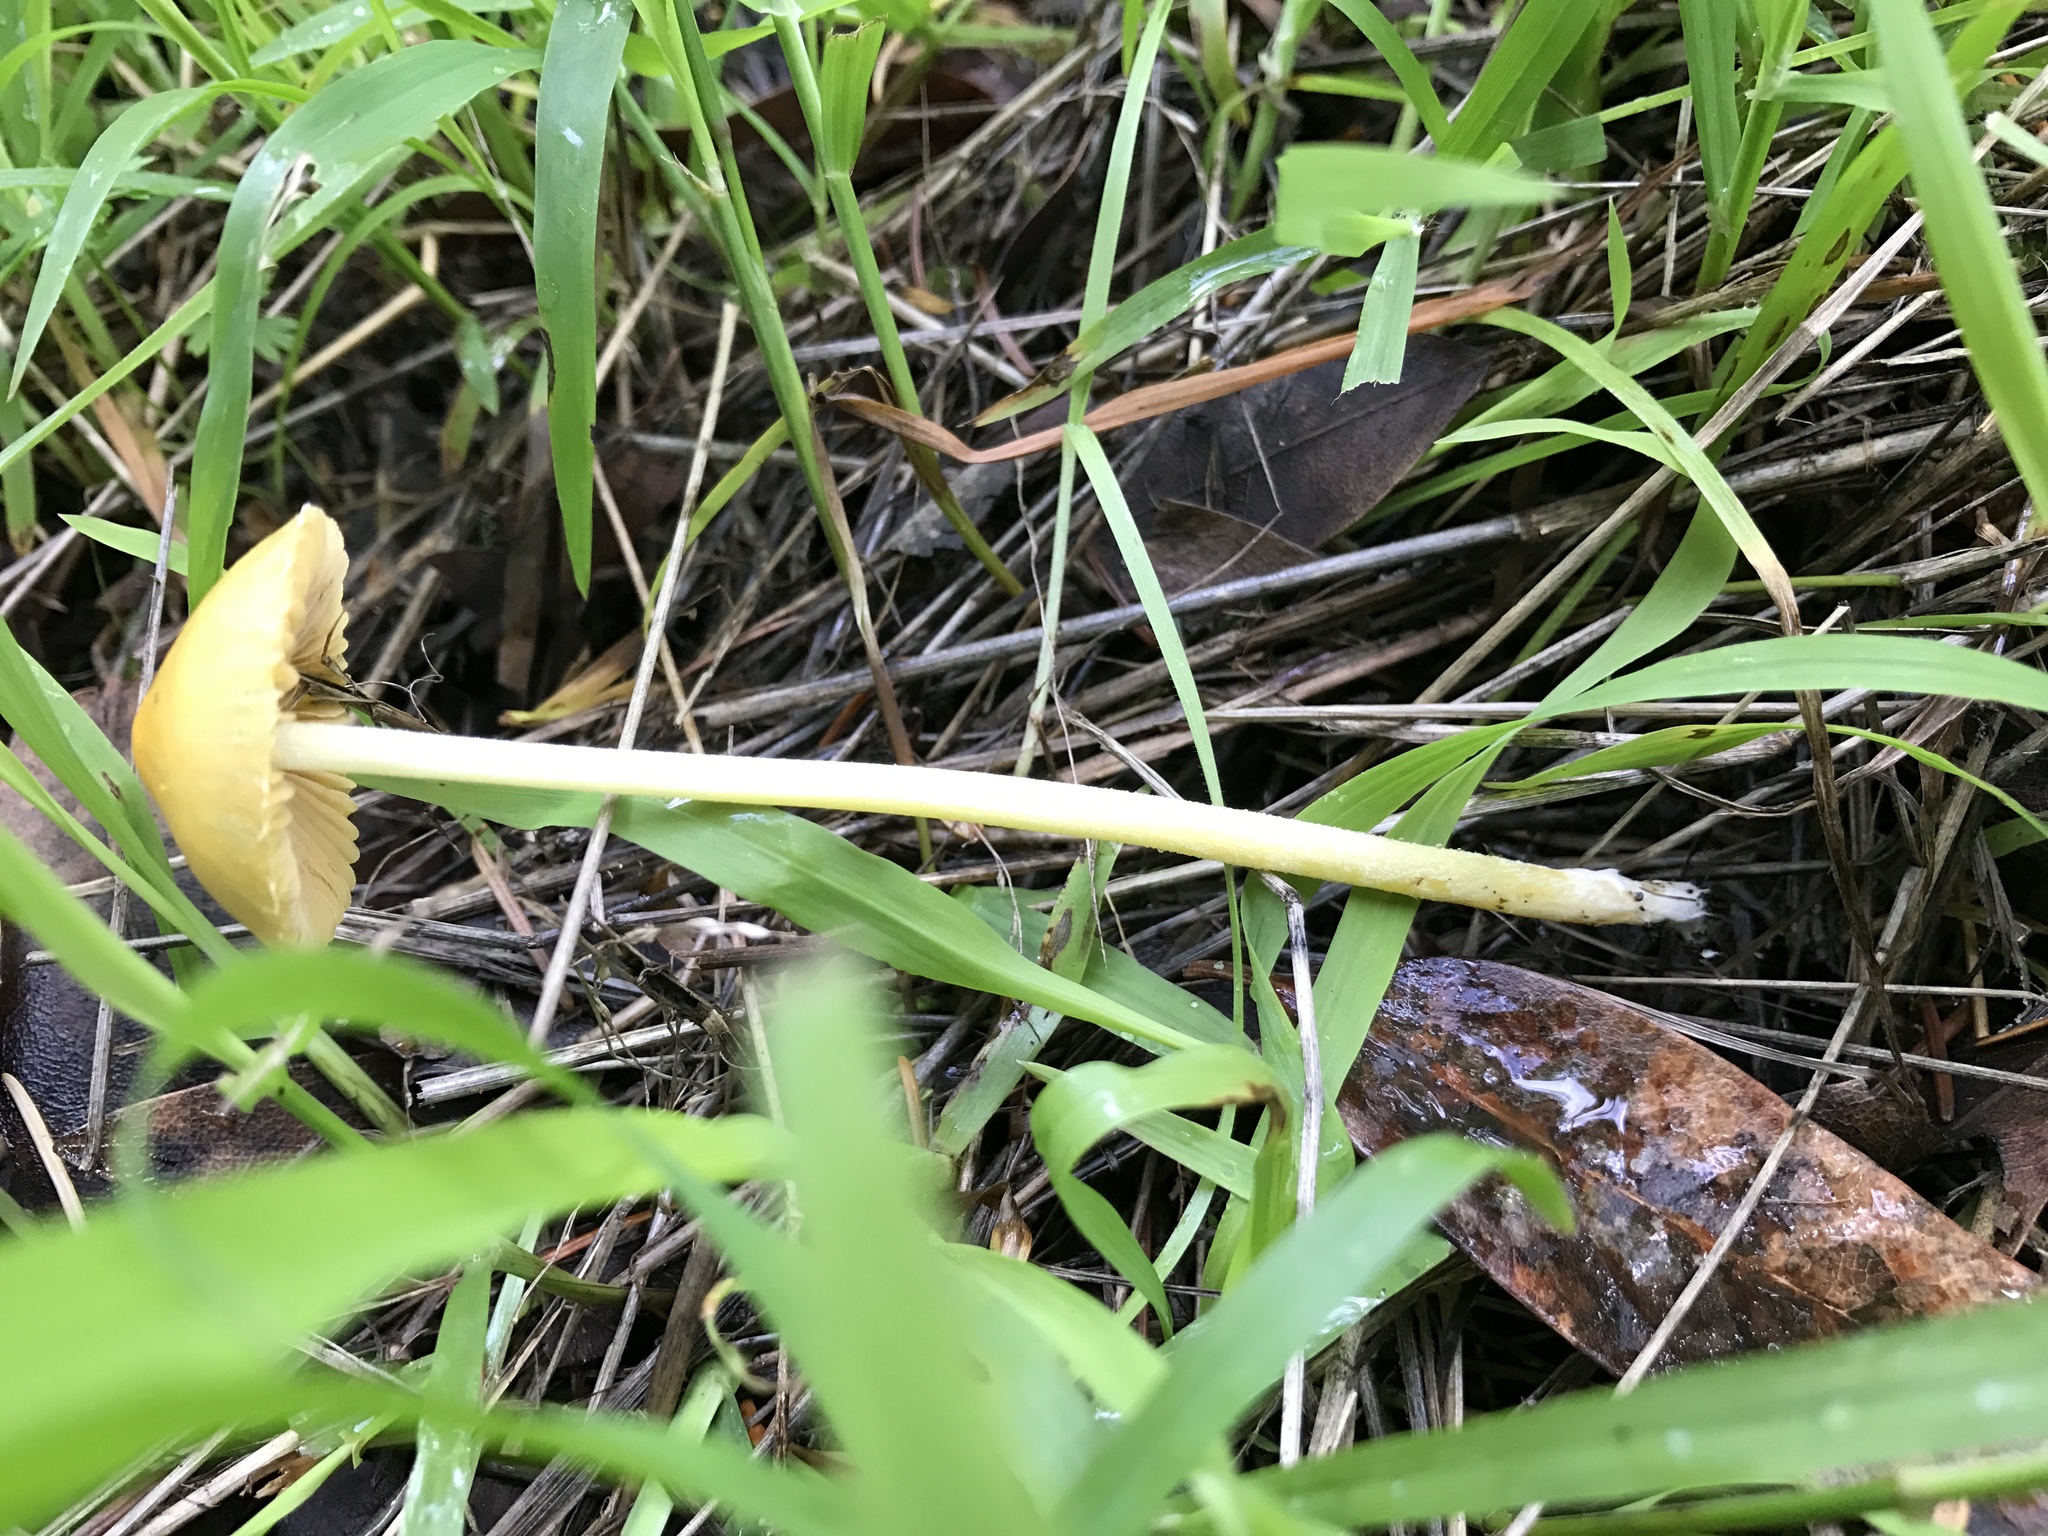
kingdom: Fungi
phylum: Basidiomycota
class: Agaricomycetes
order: Agaricales
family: Bolbitiaceae
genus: Bolbitius
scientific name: Bolbitius titubans
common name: Yellow fieldcap
